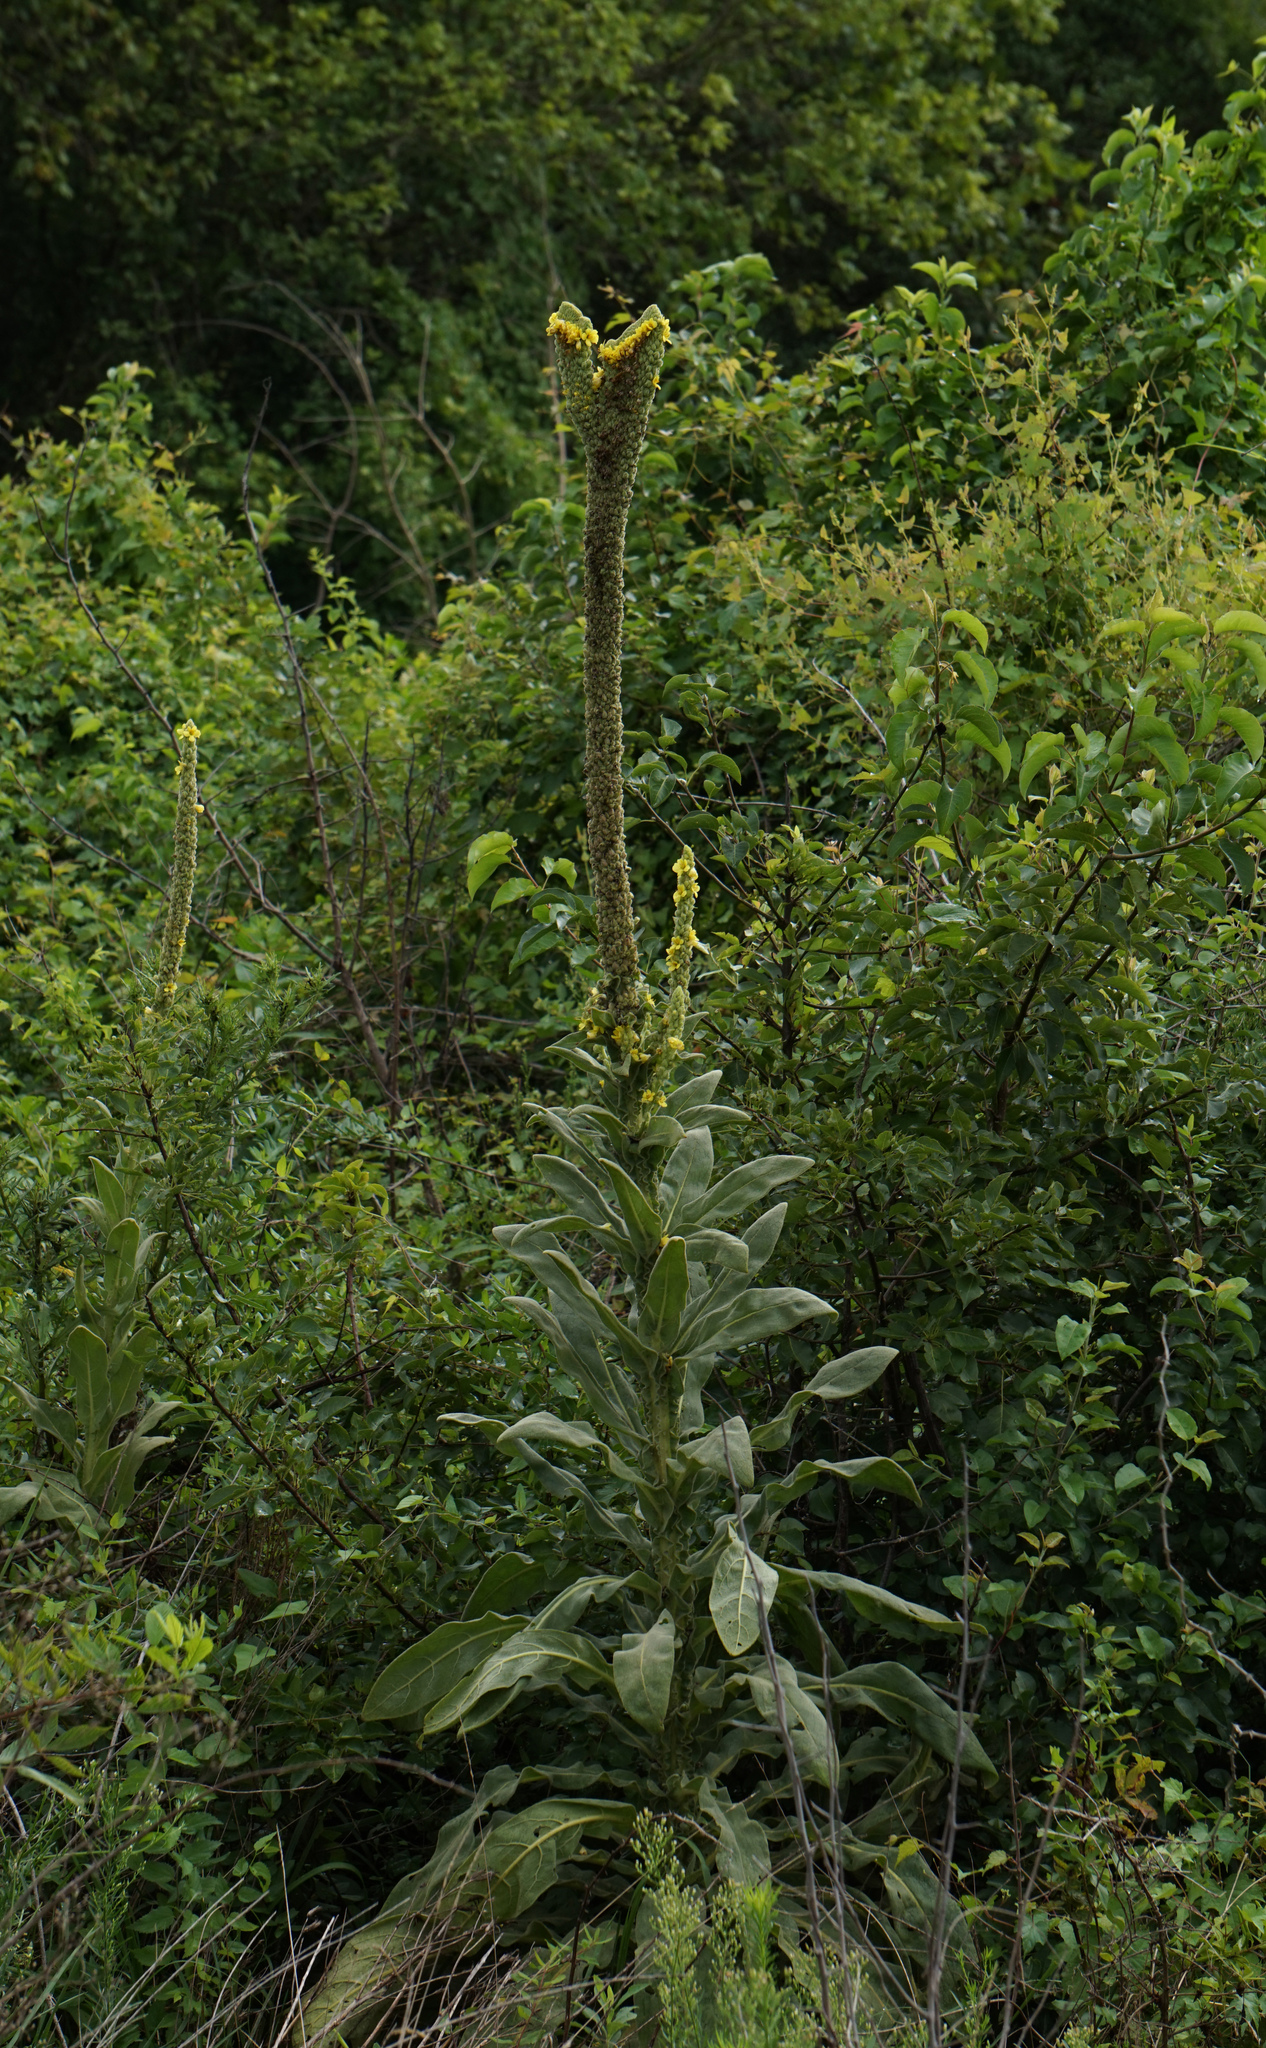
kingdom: Plantae
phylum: Tracheophyta
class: Magnoliopsida
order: Lamiales
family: Scrophulariaceae
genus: Verbascum
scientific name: Verbascum thapsus
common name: Common mullein
